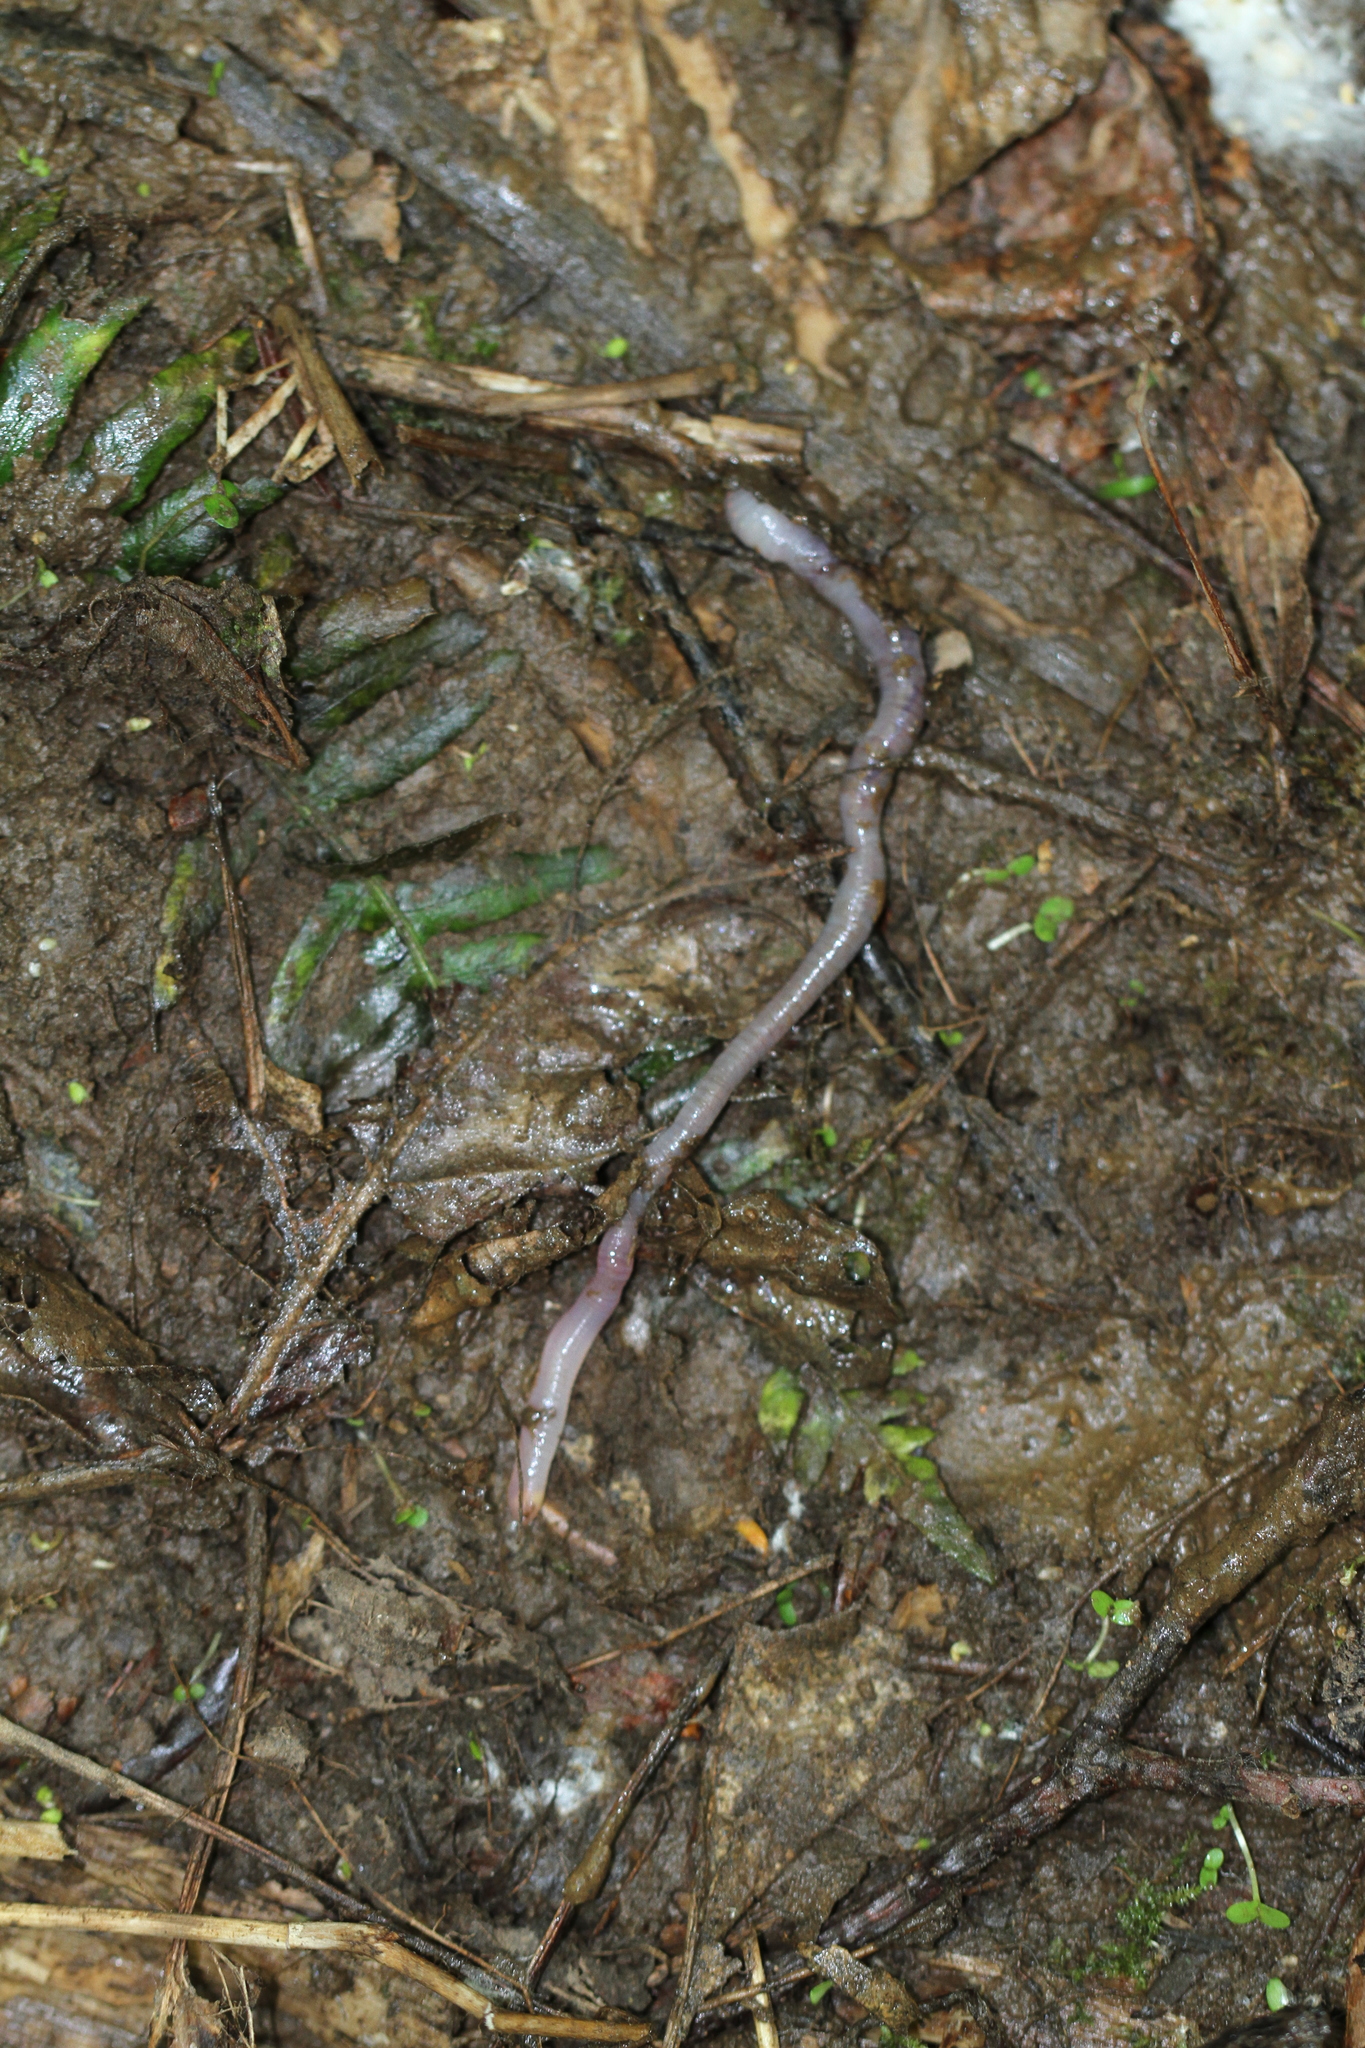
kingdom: Animalia
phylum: Annelida
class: Clitellata
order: Crassiclitellata
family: Lumbricidae
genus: Lumbricus
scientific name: Lumbricus terrestris
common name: Common earthworm
